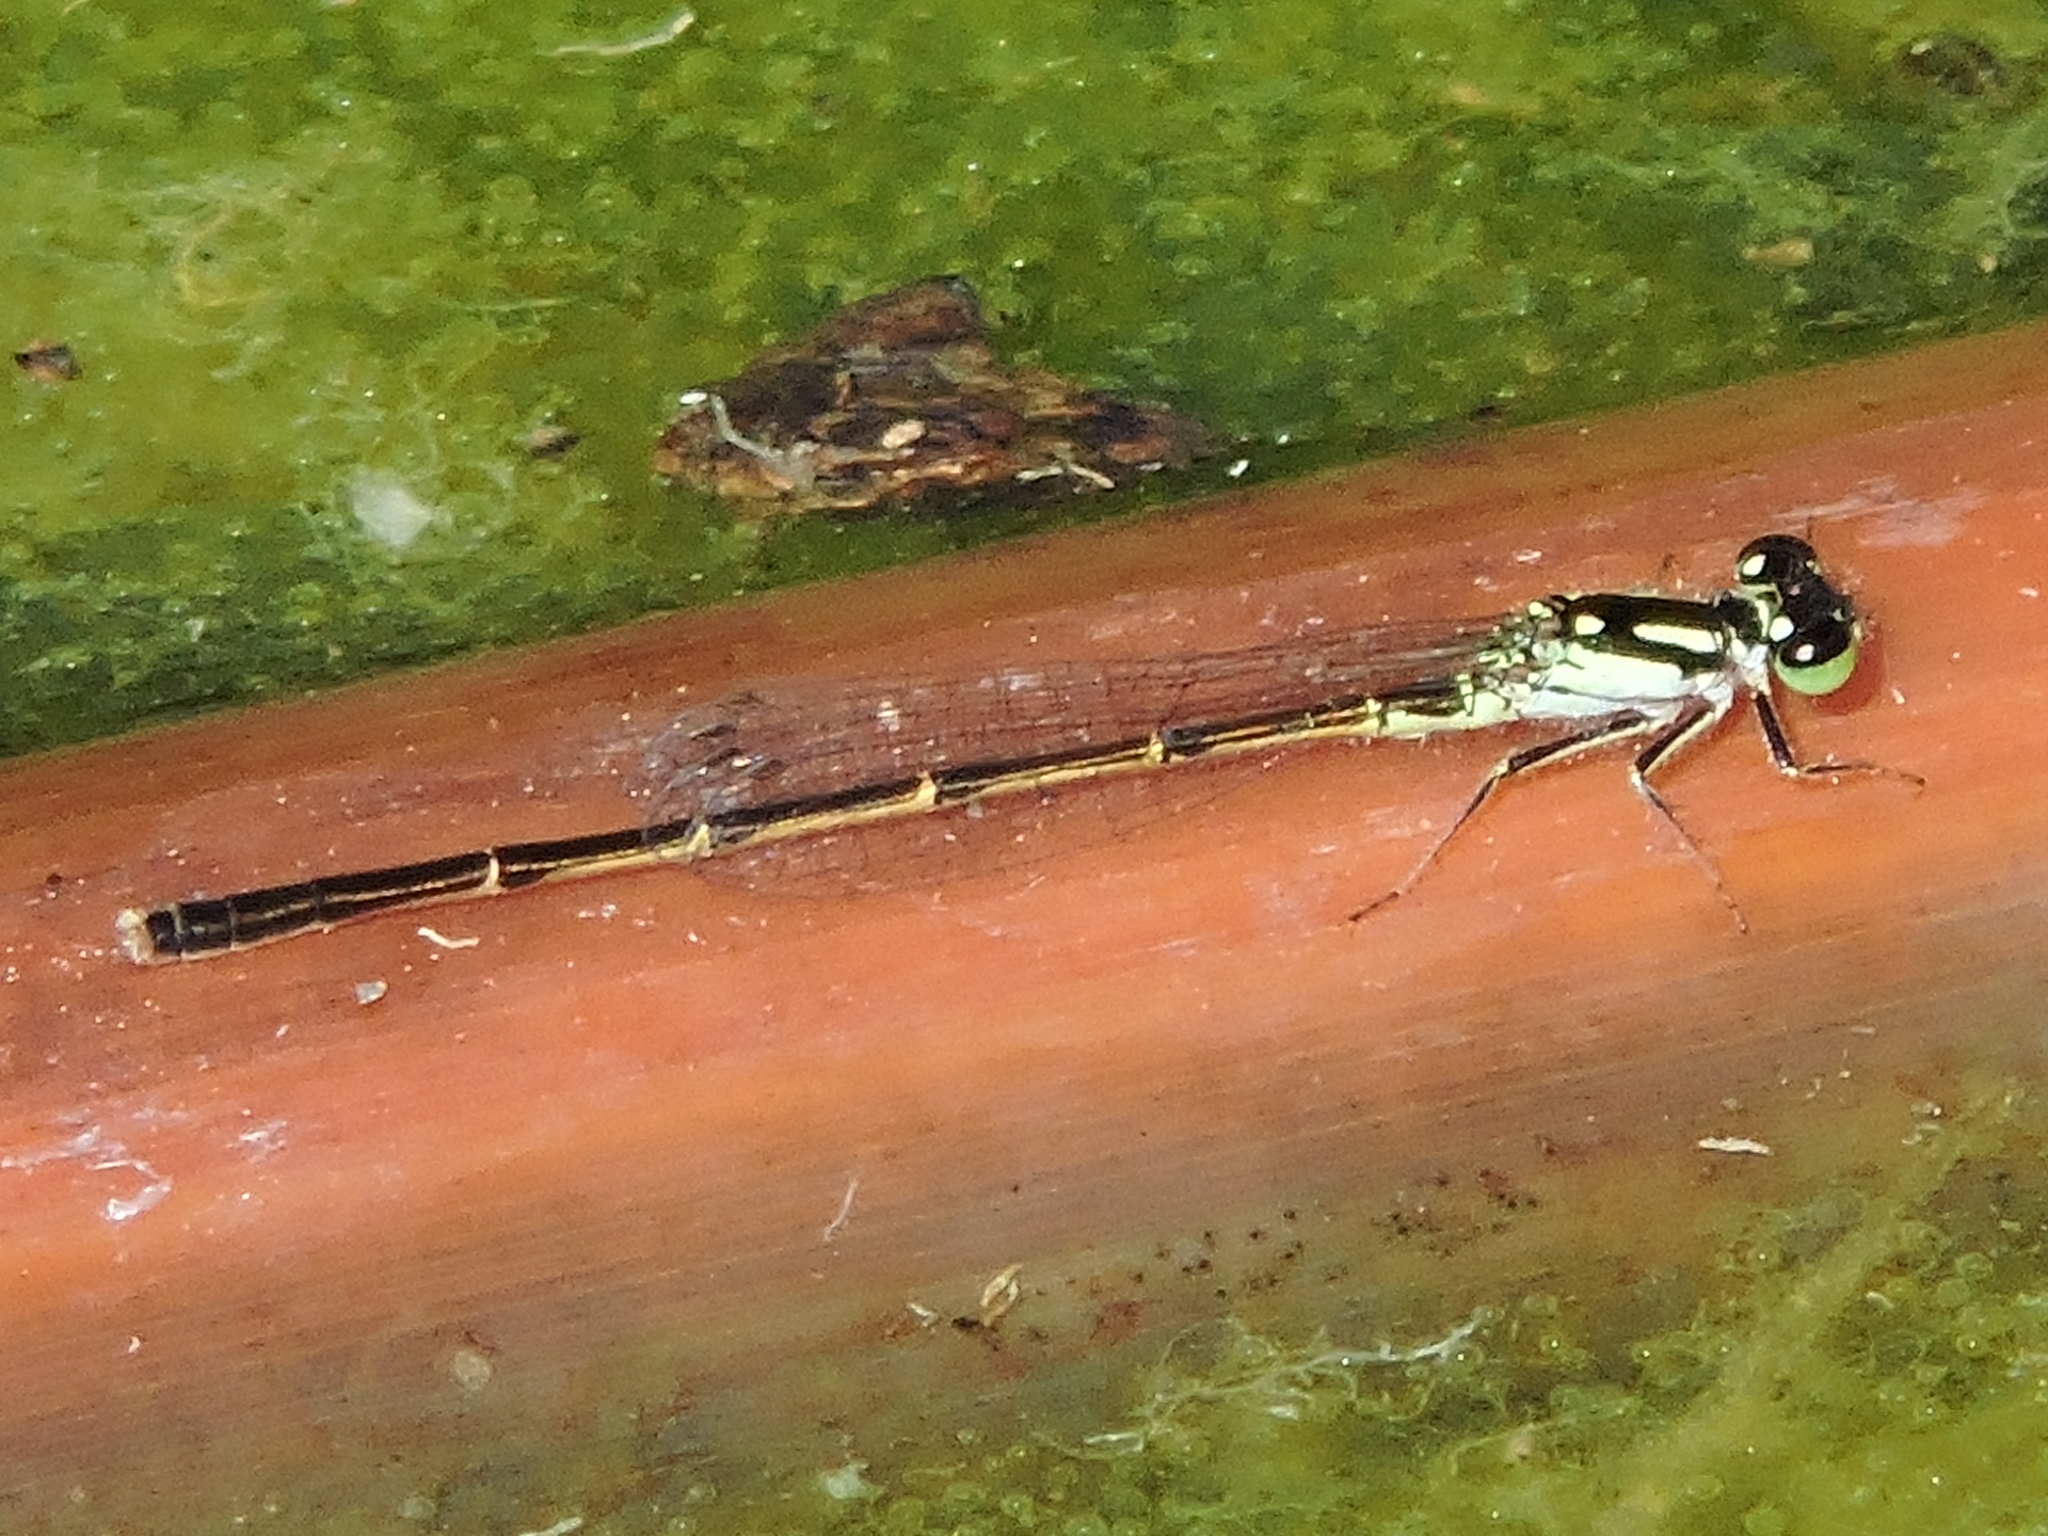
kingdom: Animalia
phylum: Arthropoda
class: Insecta
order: Odonata
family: Coenagrionidae
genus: Ischnura
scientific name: Ischnura posita
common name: Fragile forktail
